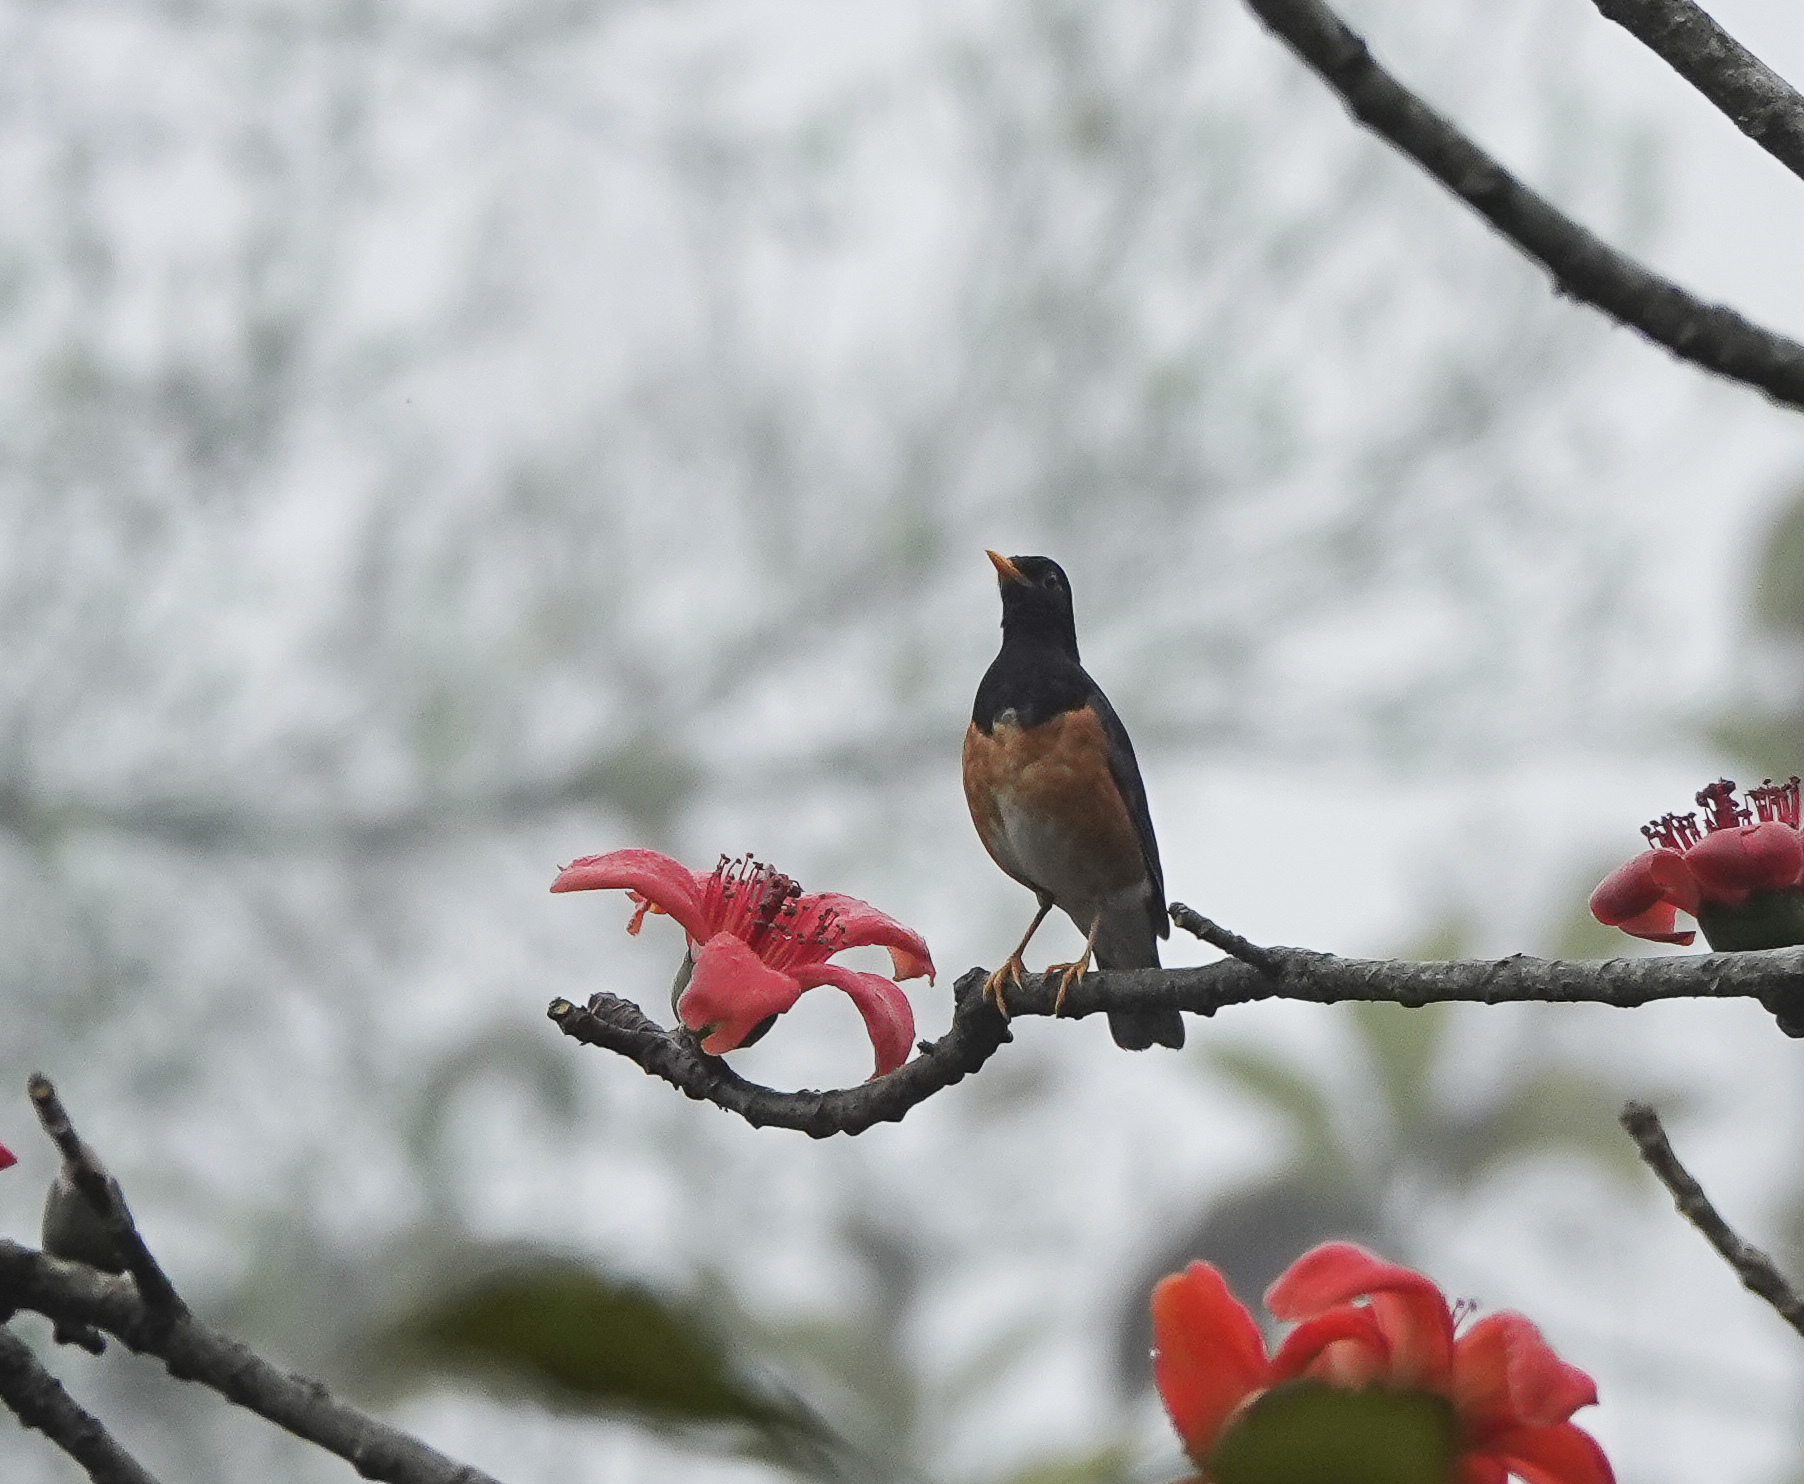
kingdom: Animalia
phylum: Chordata
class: Aves
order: Passeriformes
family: Turdidae
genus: Turdus
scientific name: Turdus dissimilis
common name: Black-breasted thrush
